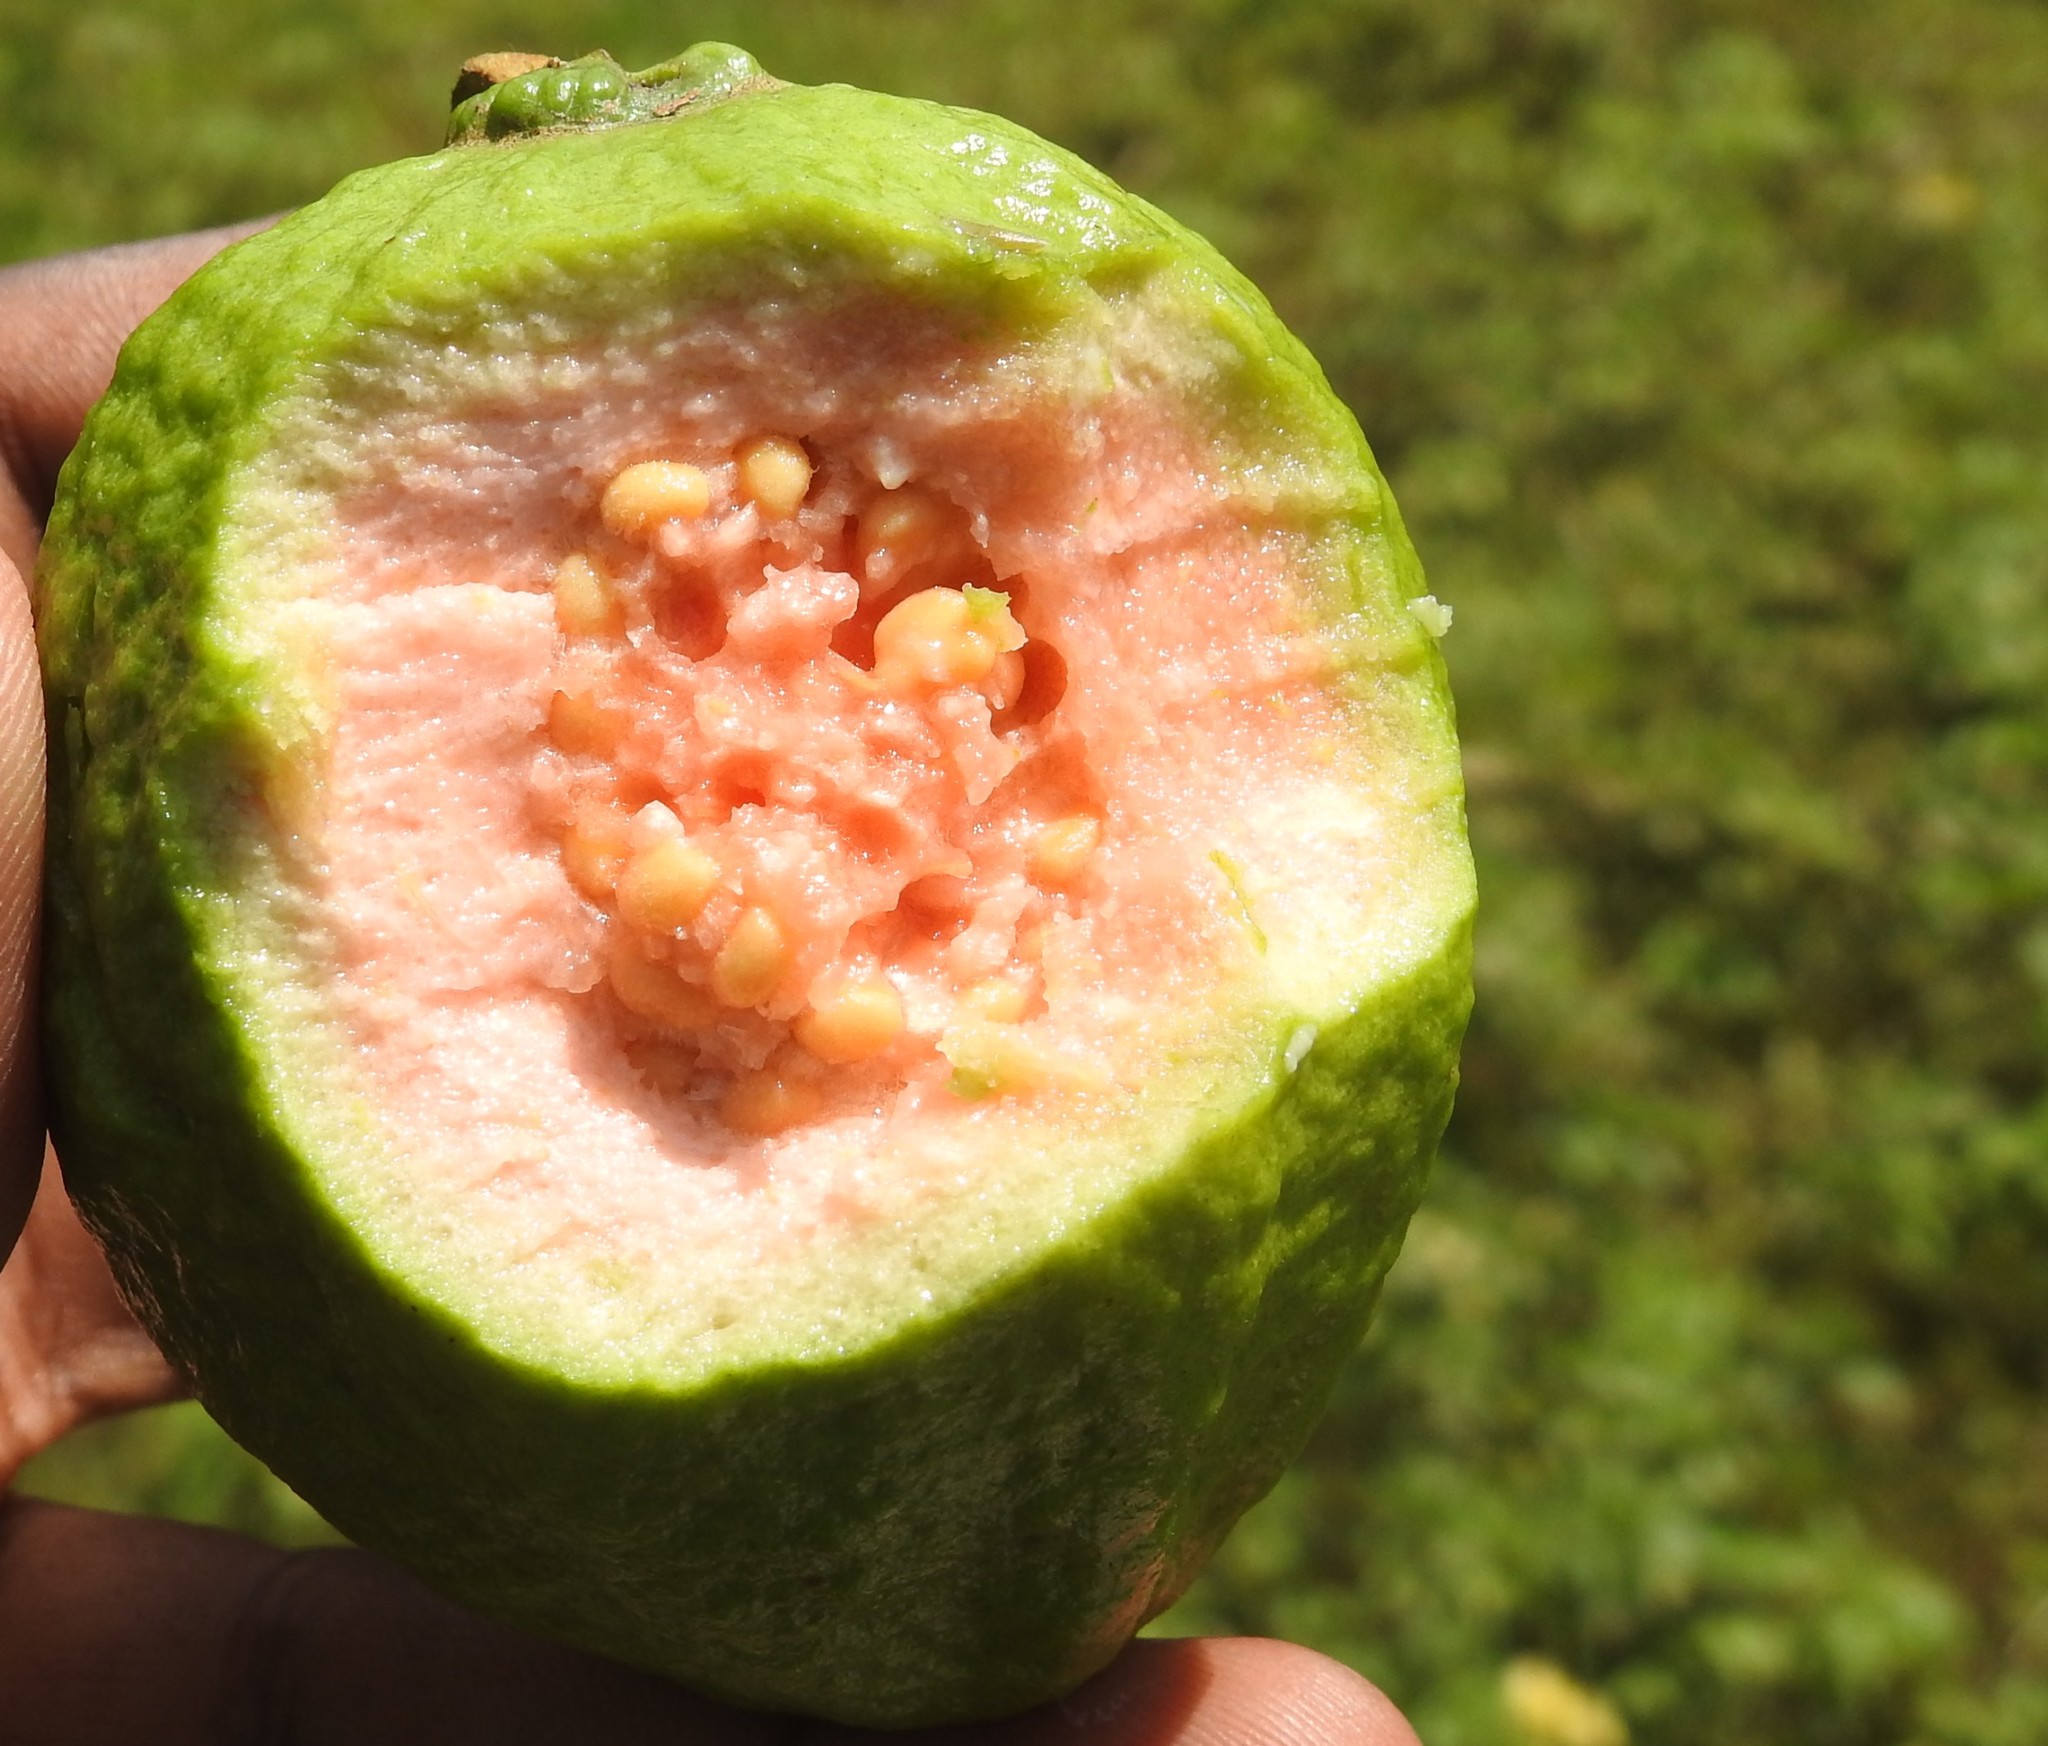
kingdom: Plantae
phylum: Tracheophyta
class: Magnoliopsida
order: Myrtales
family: Myrtaceae
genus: Psidium
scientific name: Psidium guajava
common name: Guava
